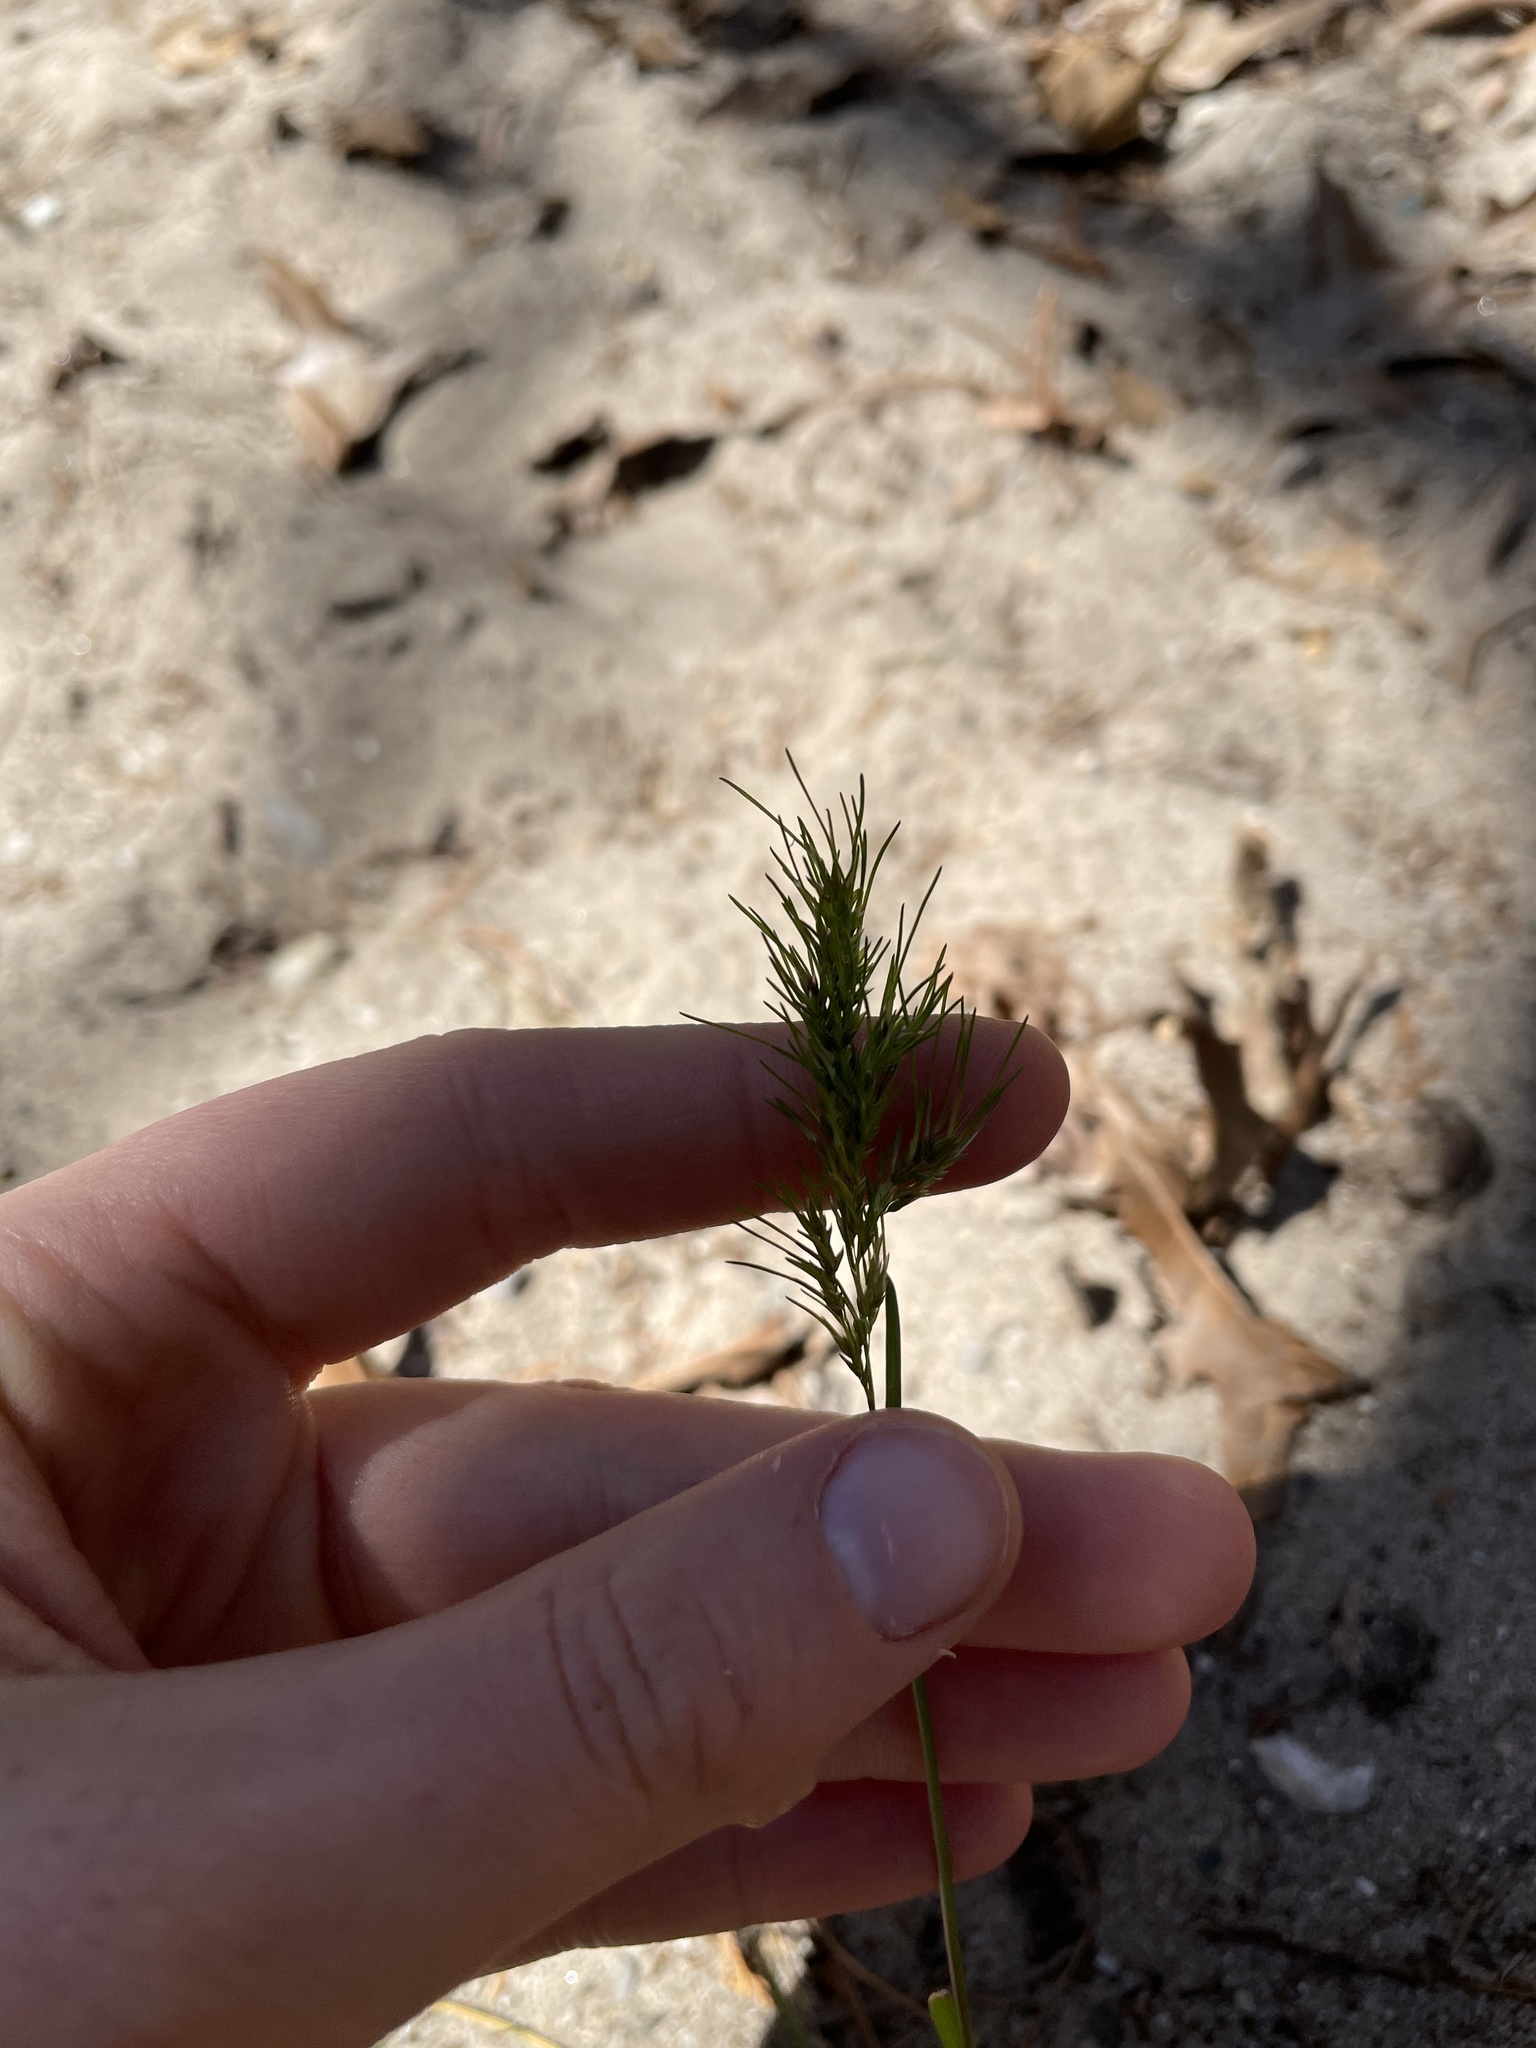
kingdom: Plantae
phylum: Tracheophyta
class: Liliopsida
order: Poales
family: Poaceae
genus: Poa
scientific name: Poa bulbosa
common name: Bulbous bluegrass
